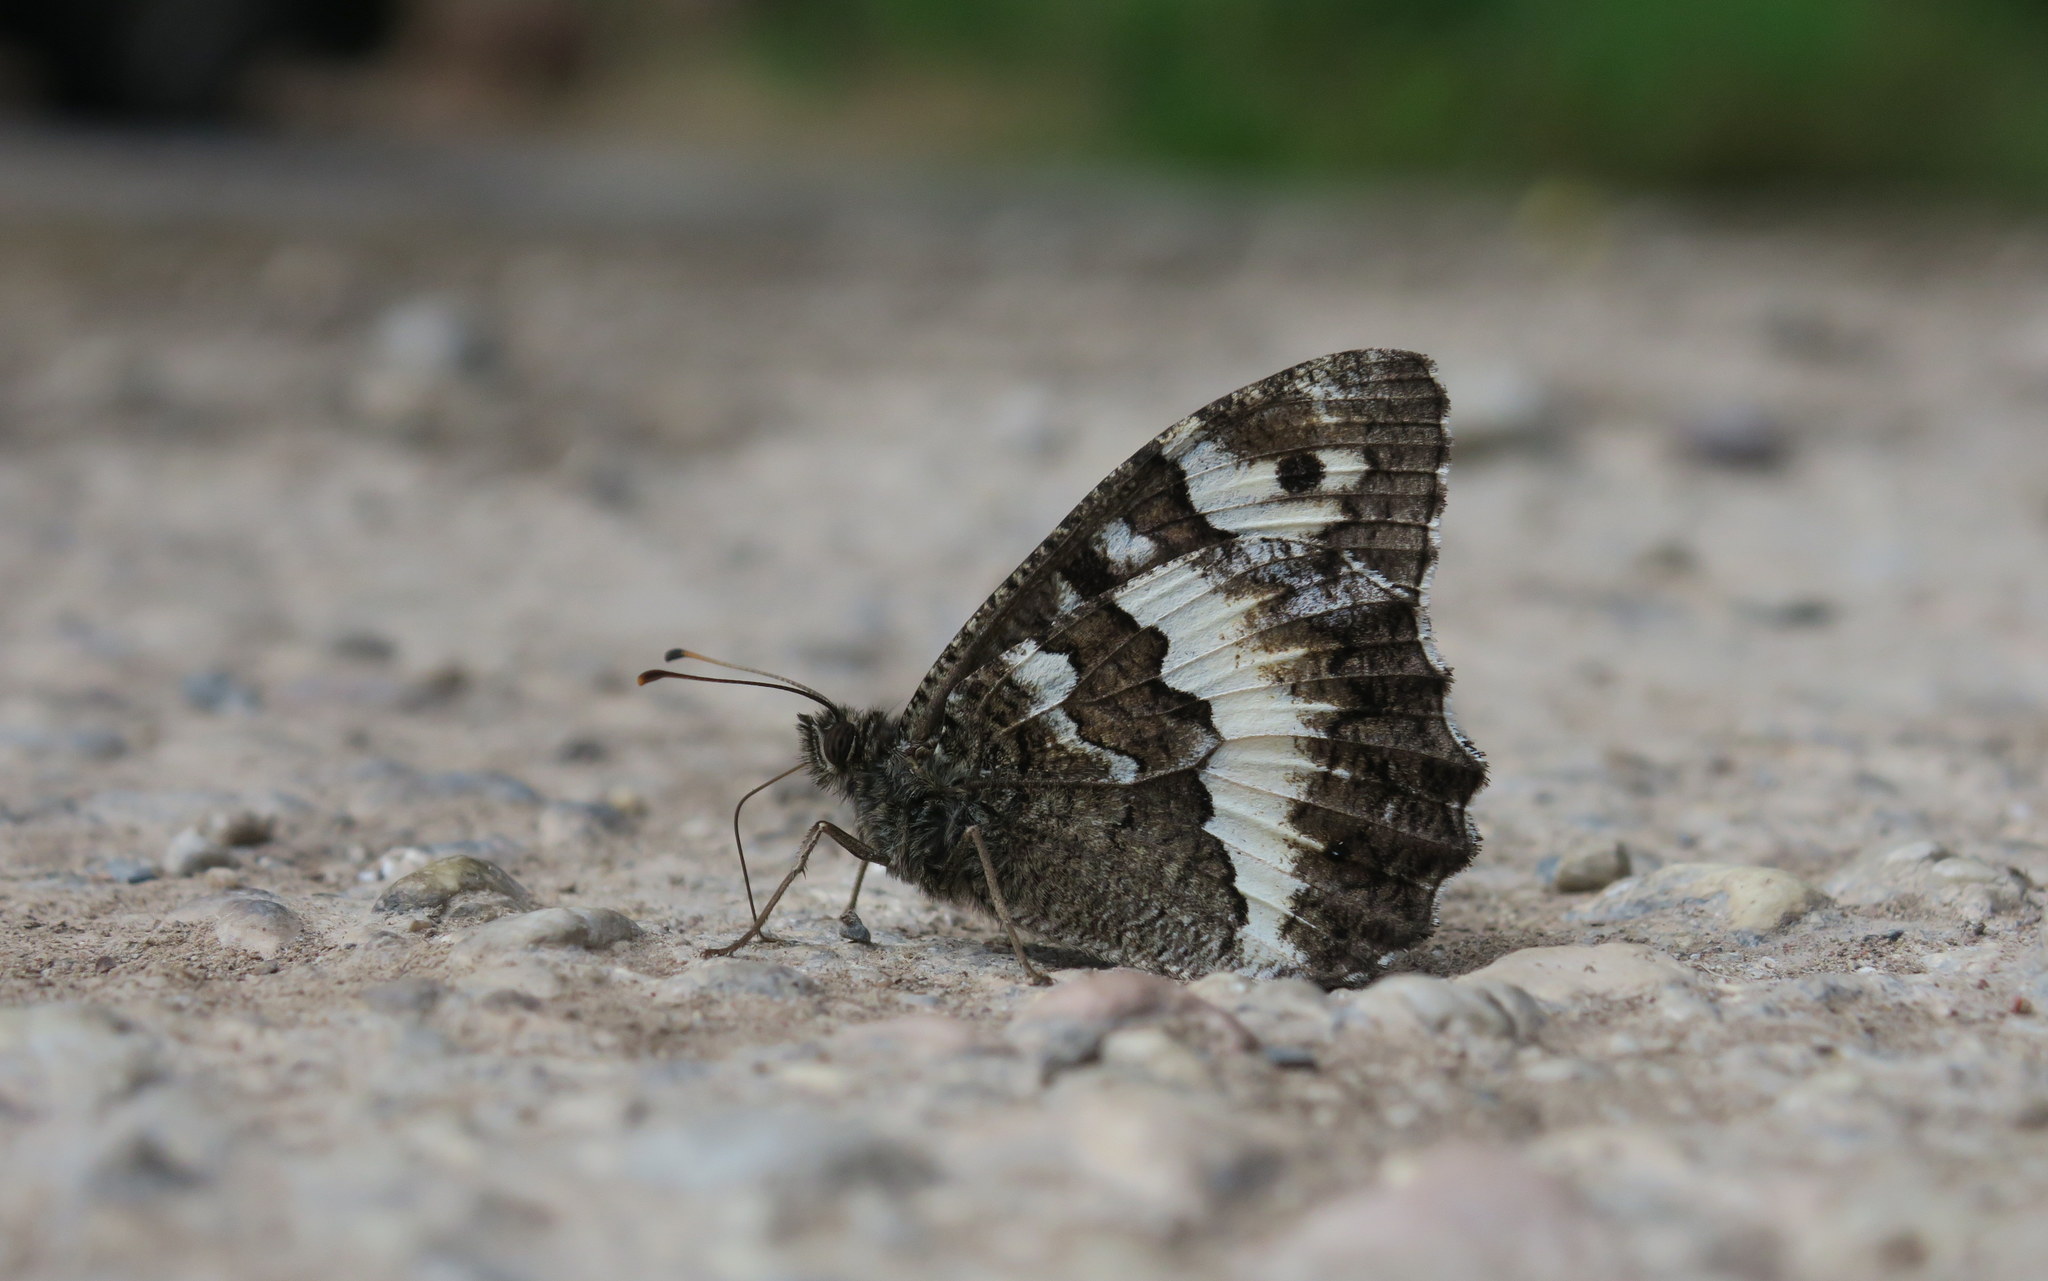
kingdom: Animalia
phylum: Arthropoda
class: Insecta
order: Lepidoptera
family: Lycaenidae
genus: Loweia
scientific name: Loweia tityrus
